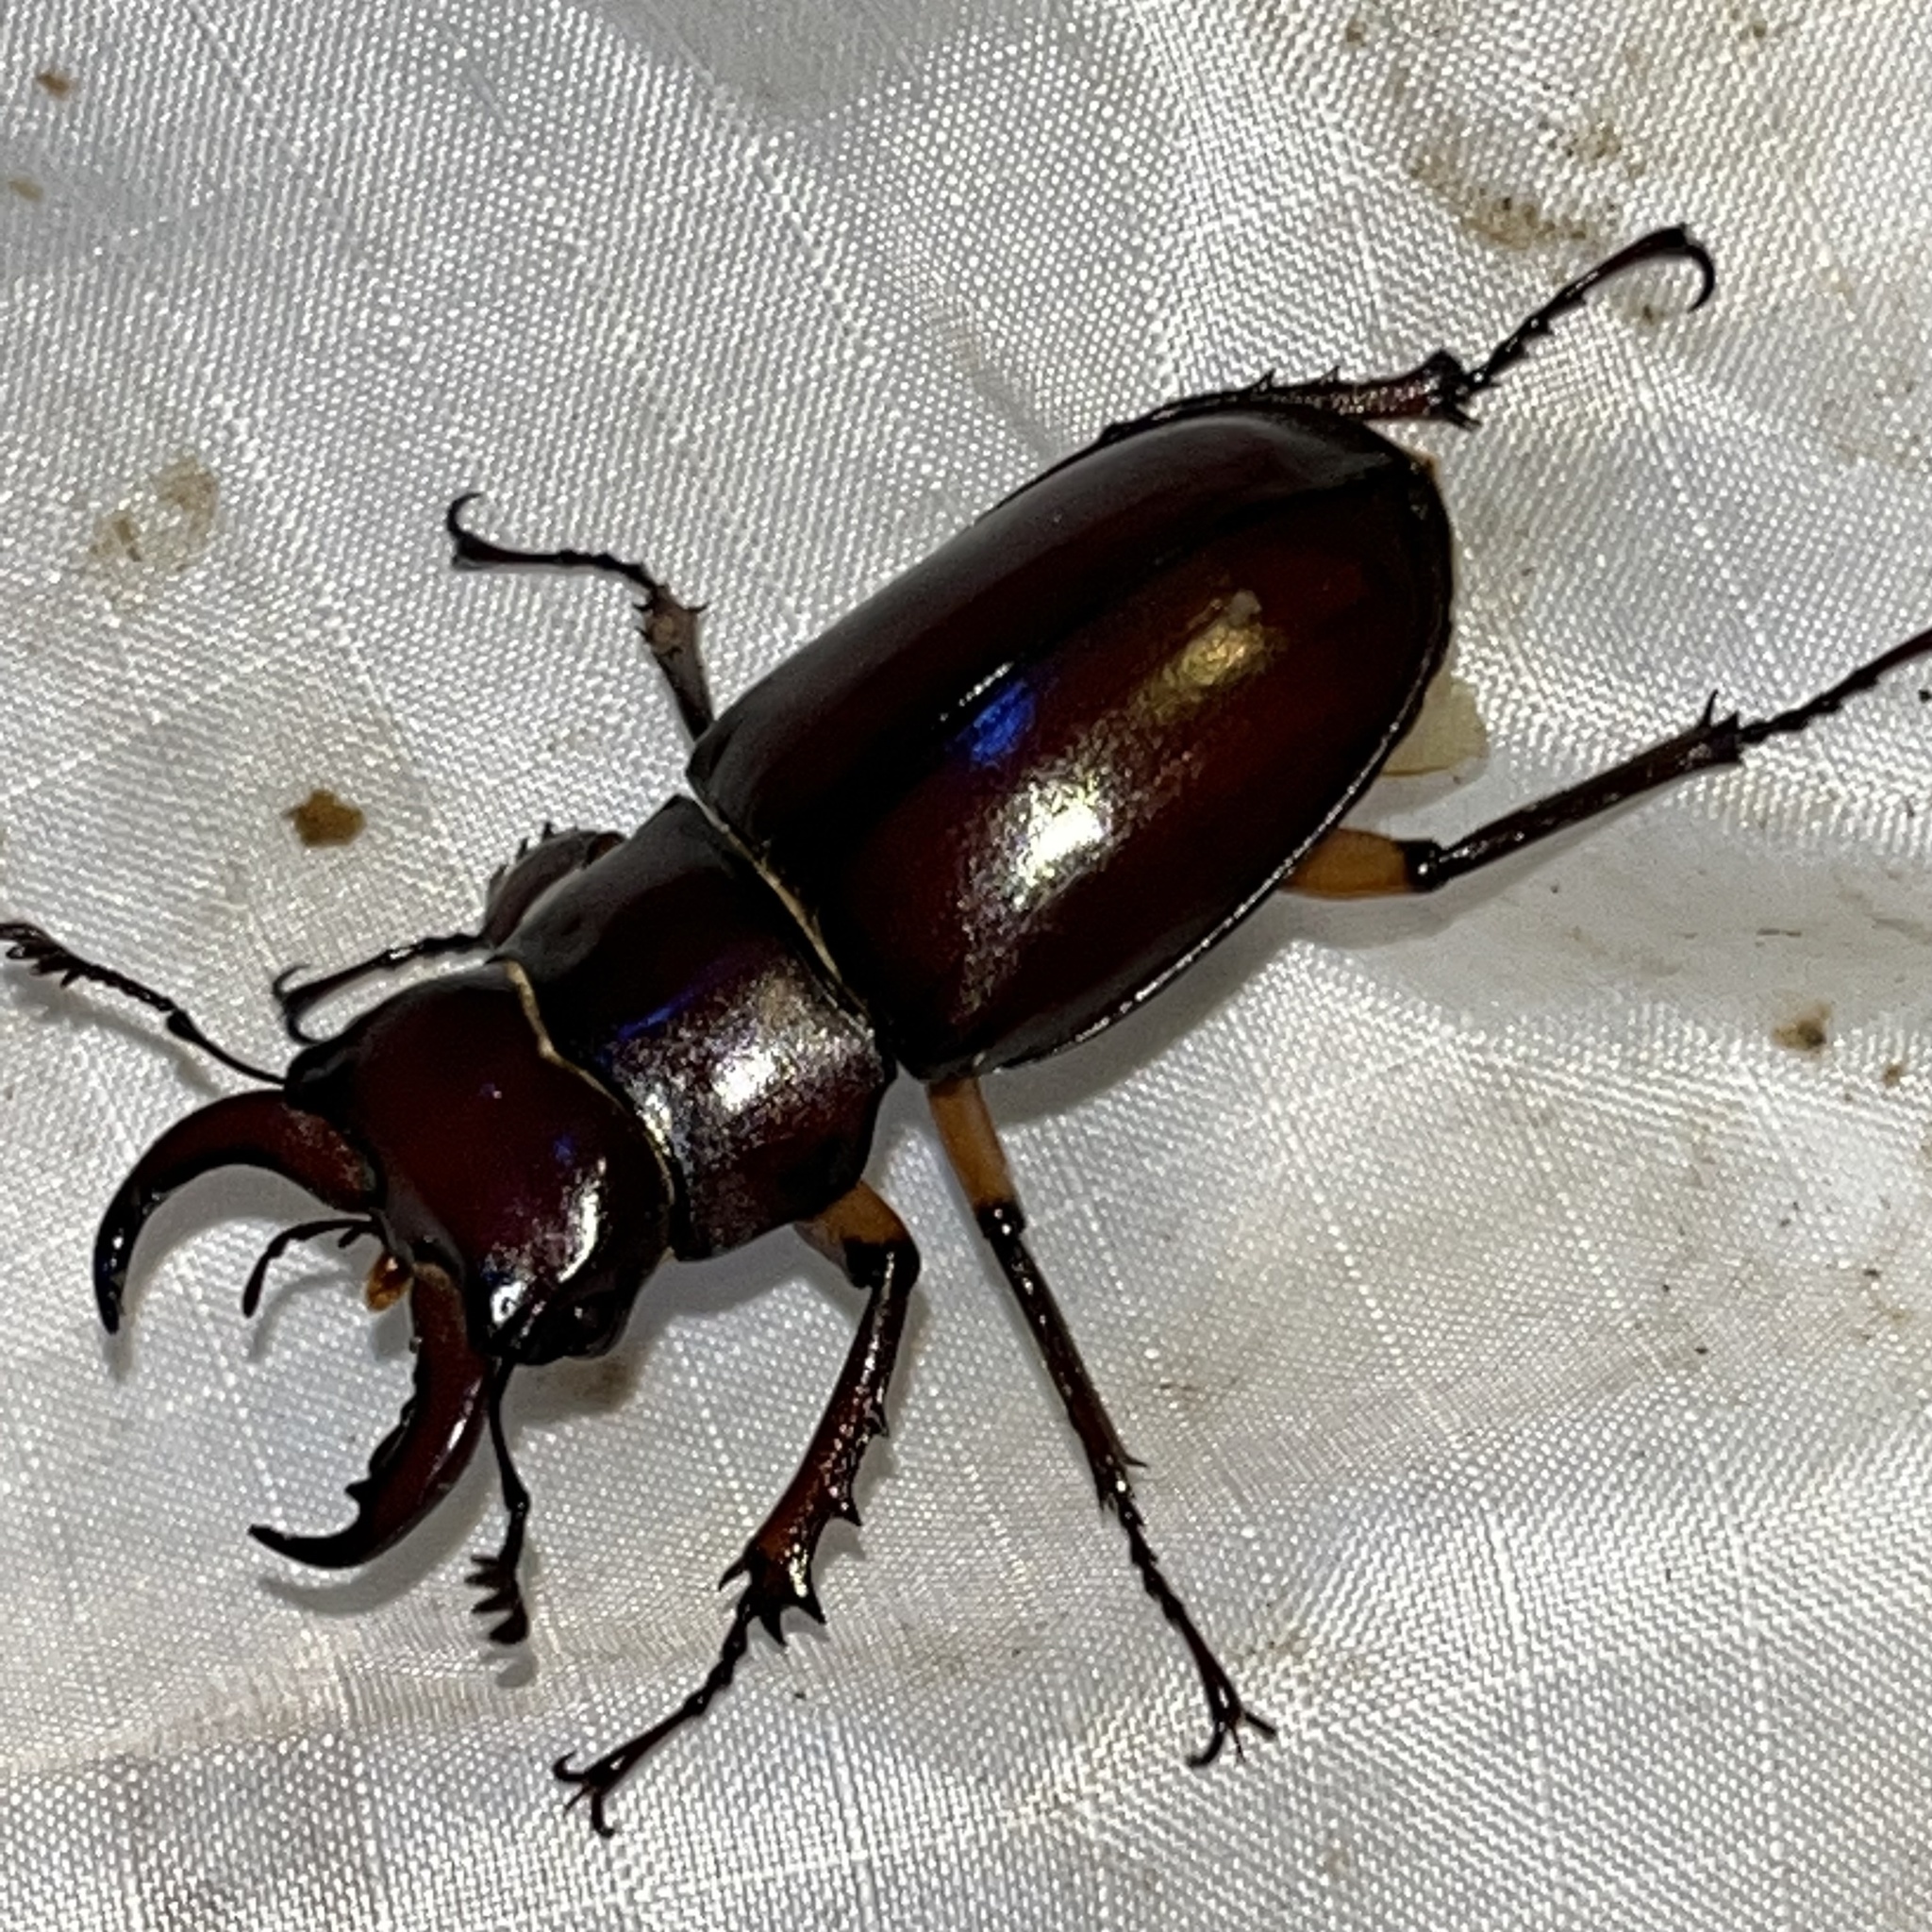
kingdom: Animalia
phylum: Arthropoda
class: Insecta
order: Coleoptera
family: Lucanidae
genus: Lucanus
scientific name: Lucanus capreolus
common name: Stag beetle
